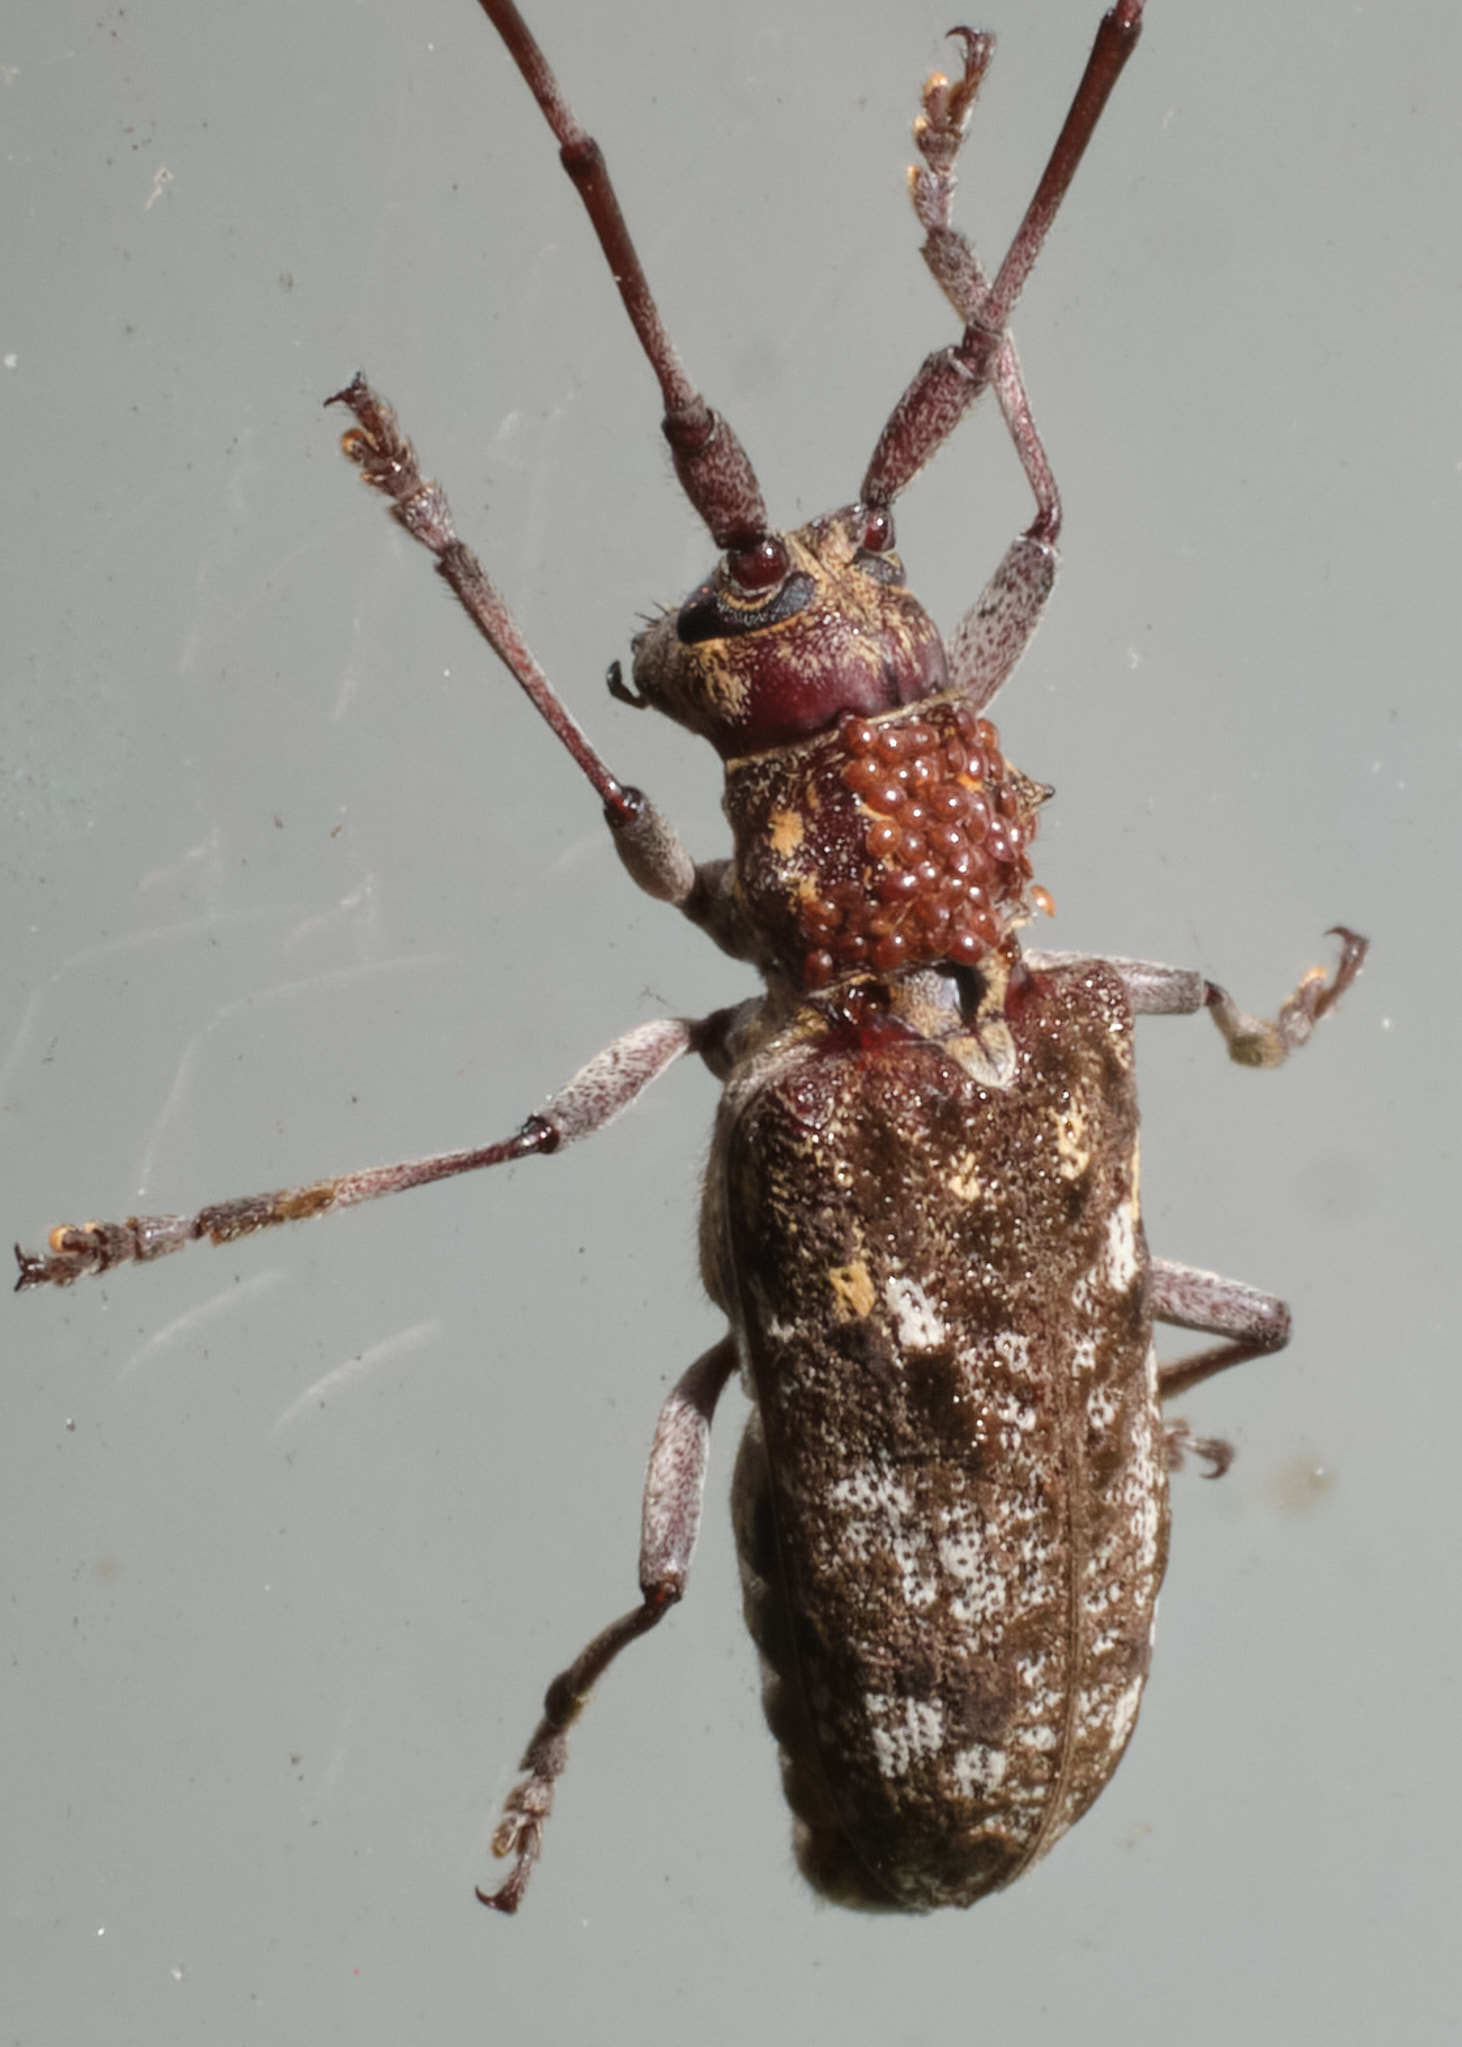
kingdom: Animalia
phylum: Arthropoda
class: Insecta
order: Coleoptera
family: Cerambycidae
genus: Monochamus
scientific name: Monochamus carolinensis
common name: Carolina pine sawyer
